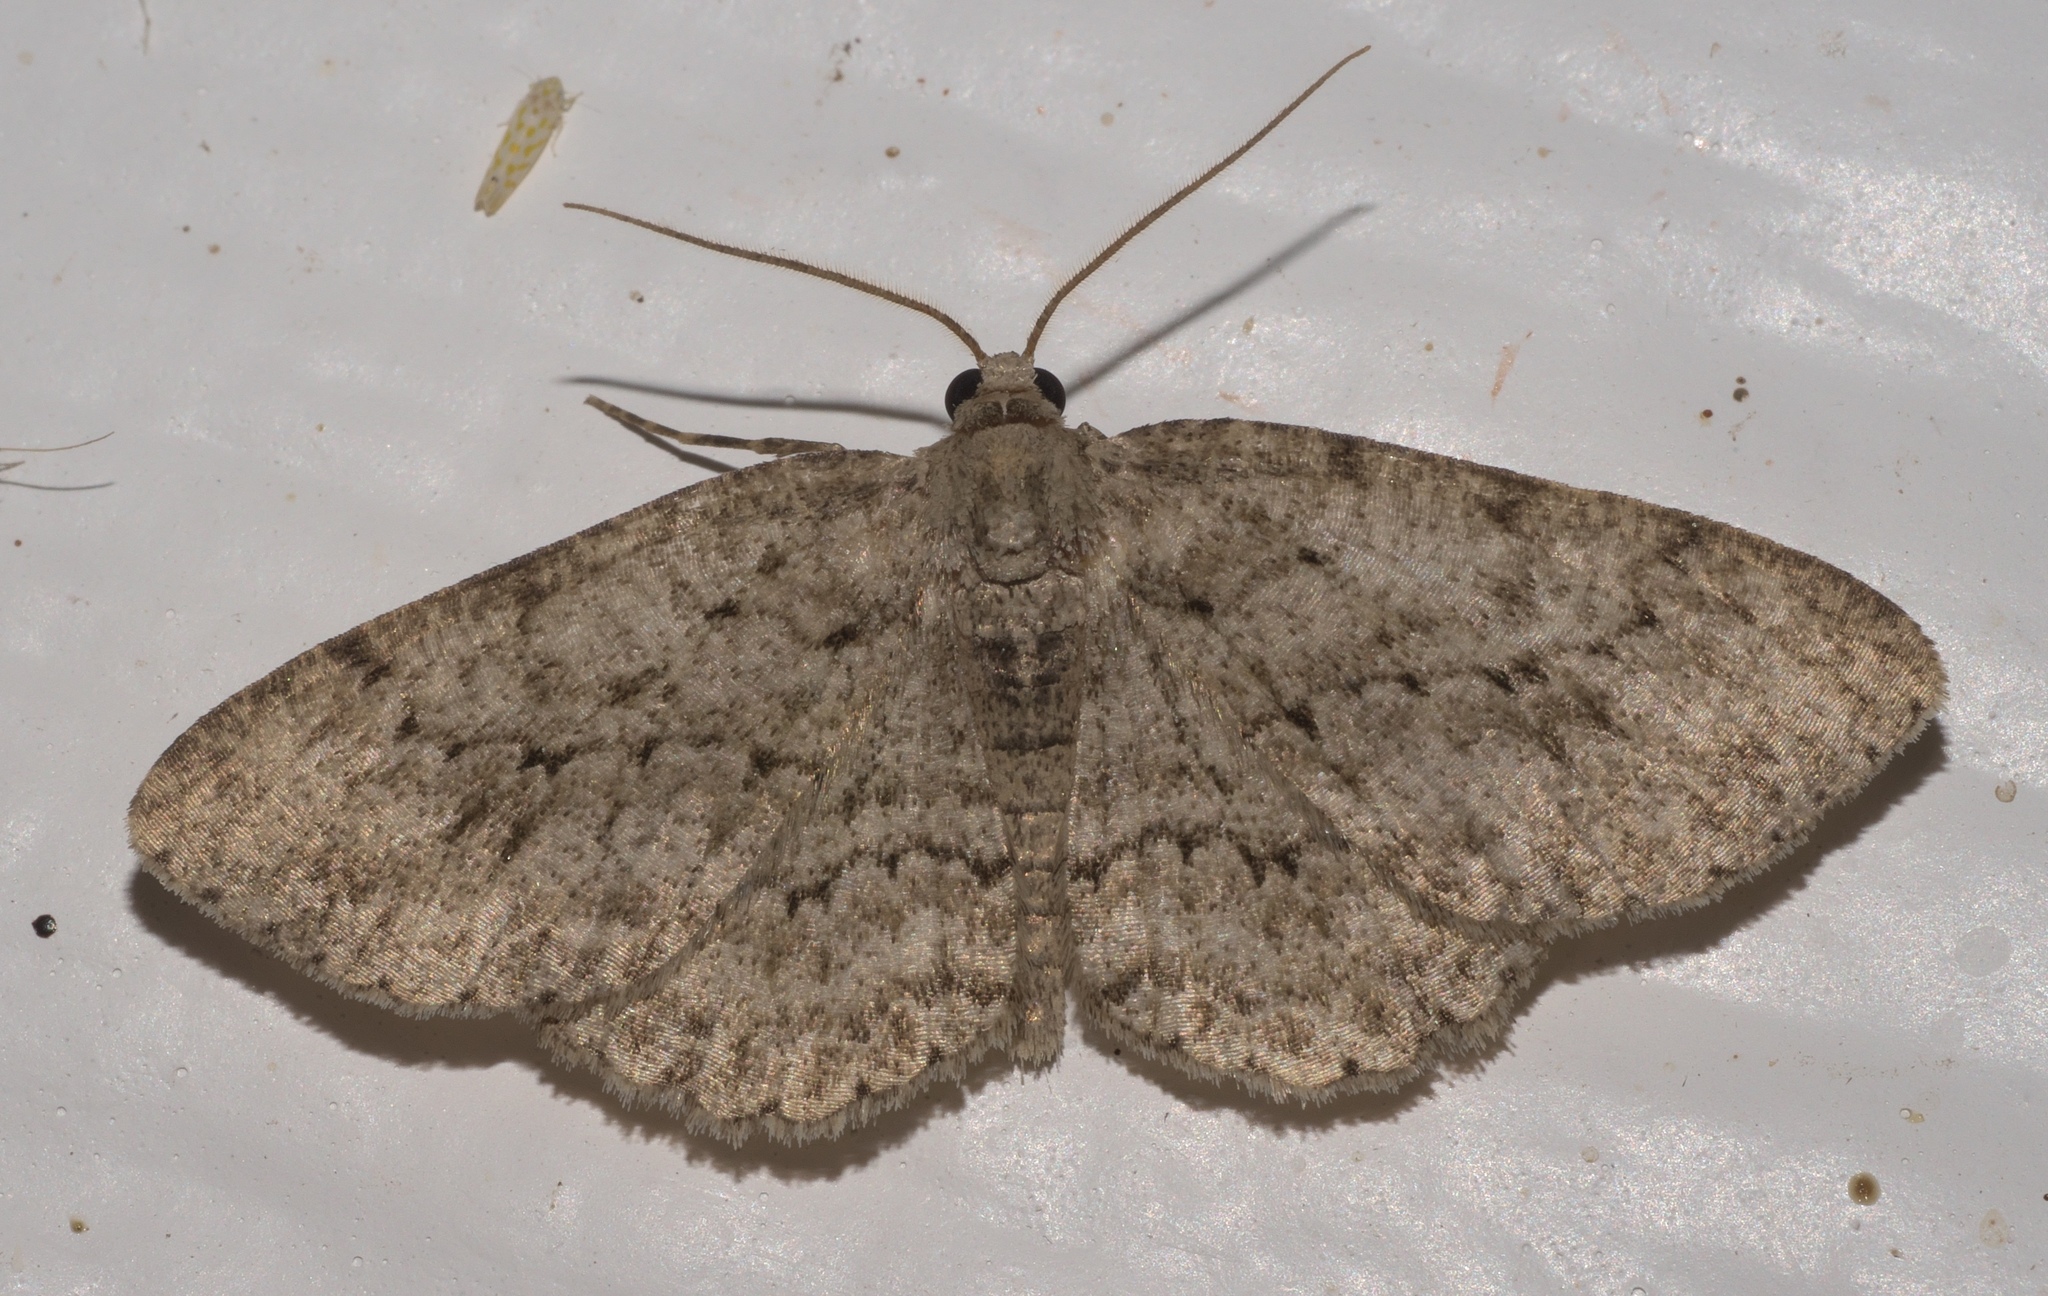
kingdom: Animalia
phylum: Arthropoda
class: Insecta
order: Lepidoptera
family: Geometridae
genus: Ectropis
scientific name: Ectropis crepuscularia
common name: Engrailed
